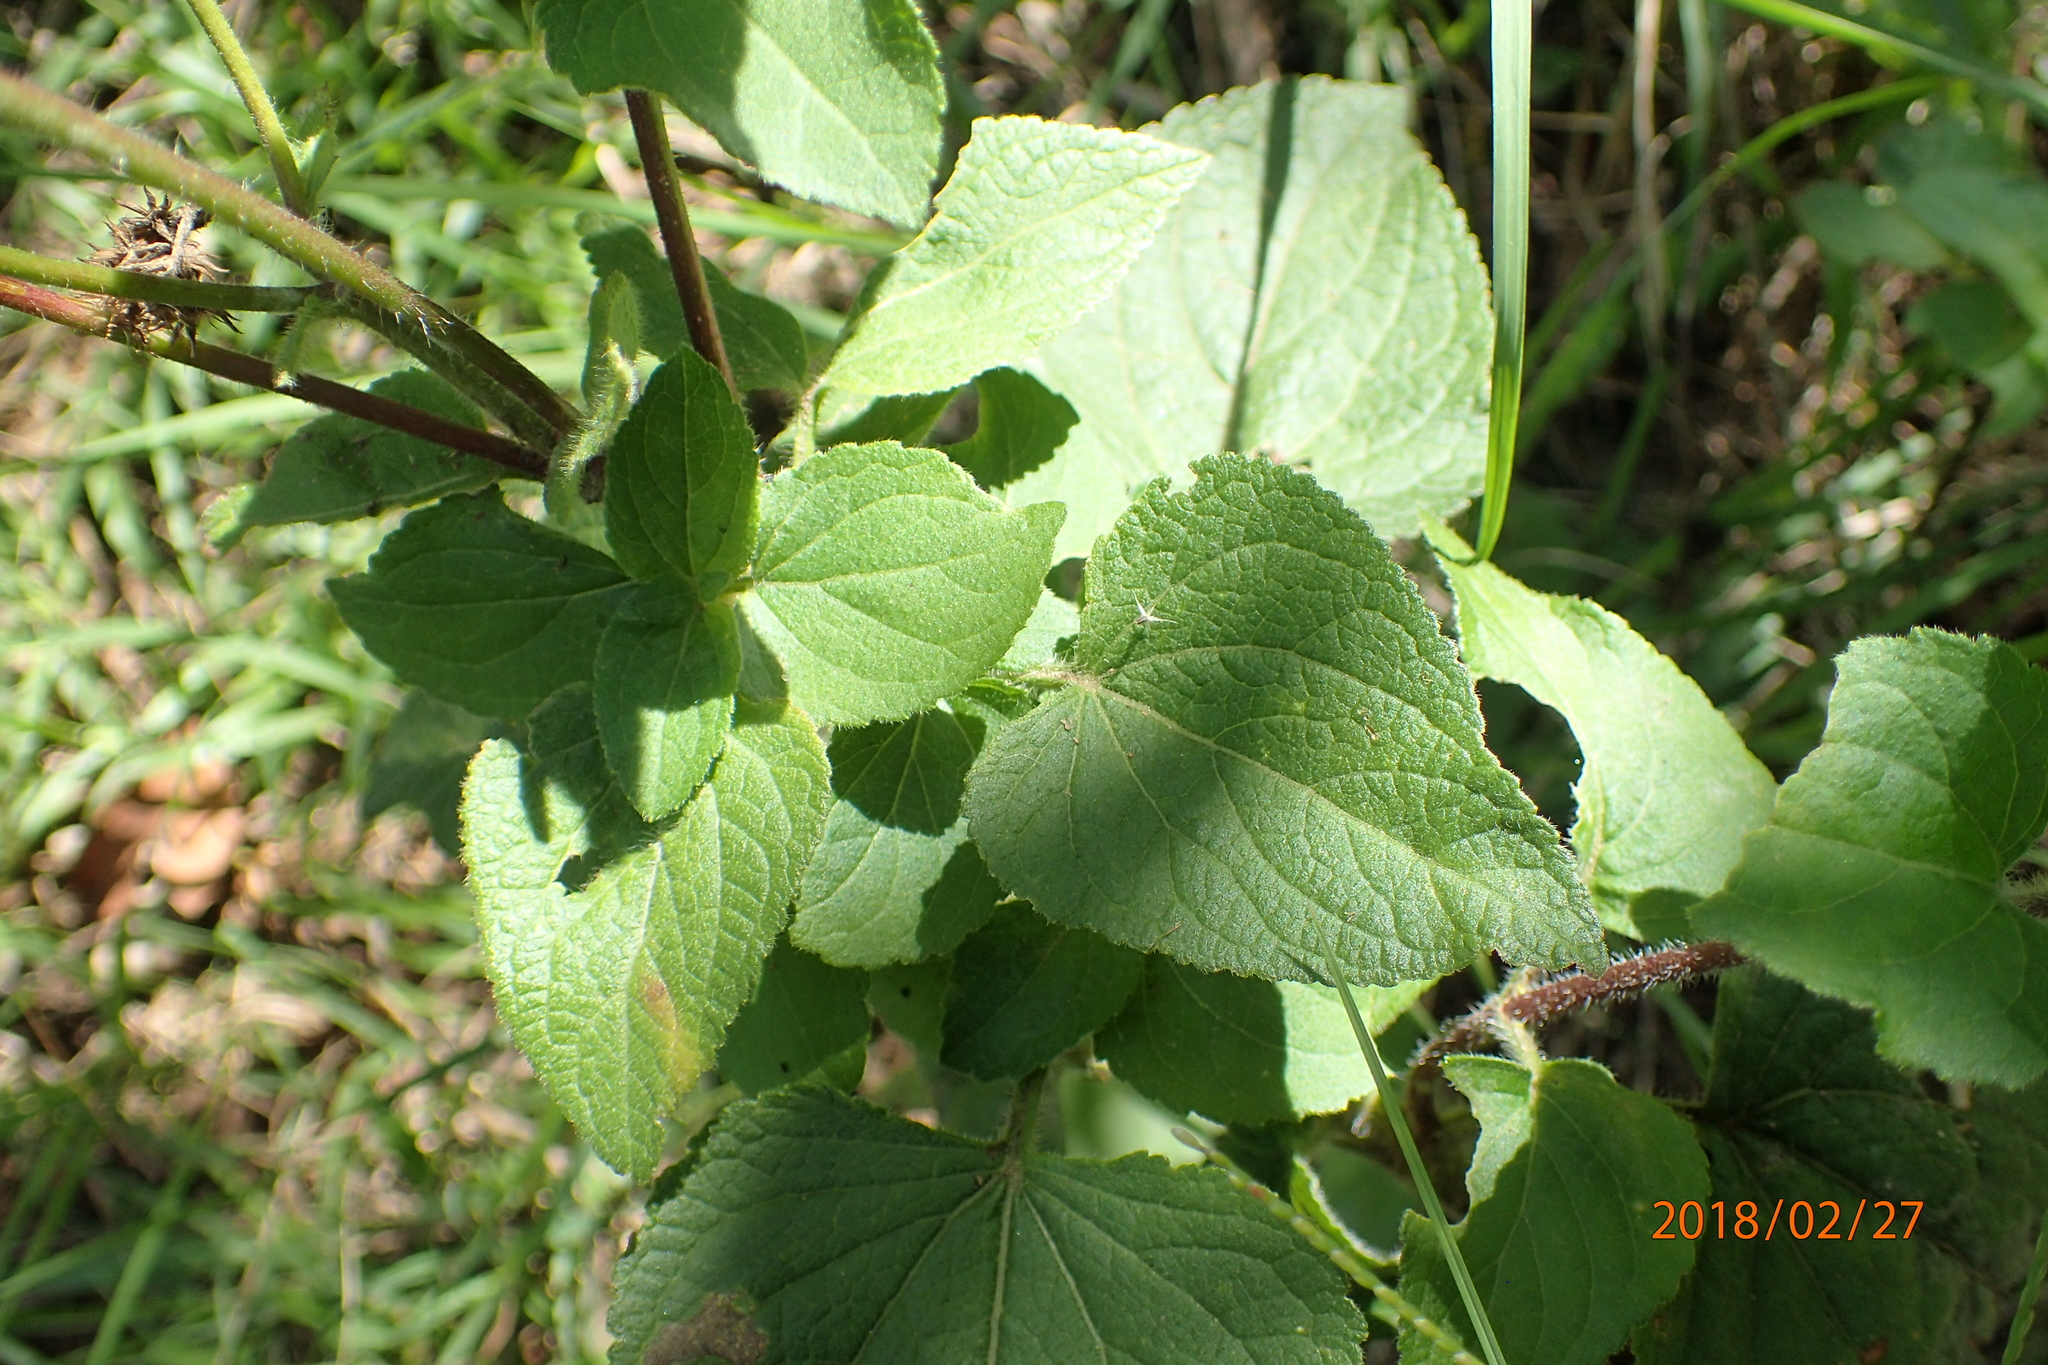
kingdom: Plantae
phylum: Tracheophyta
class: Magnoliopsida
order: Asterales
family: Asteraceae
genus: Ageratum
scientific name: Ageratum houstonianum
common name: Bluemink
